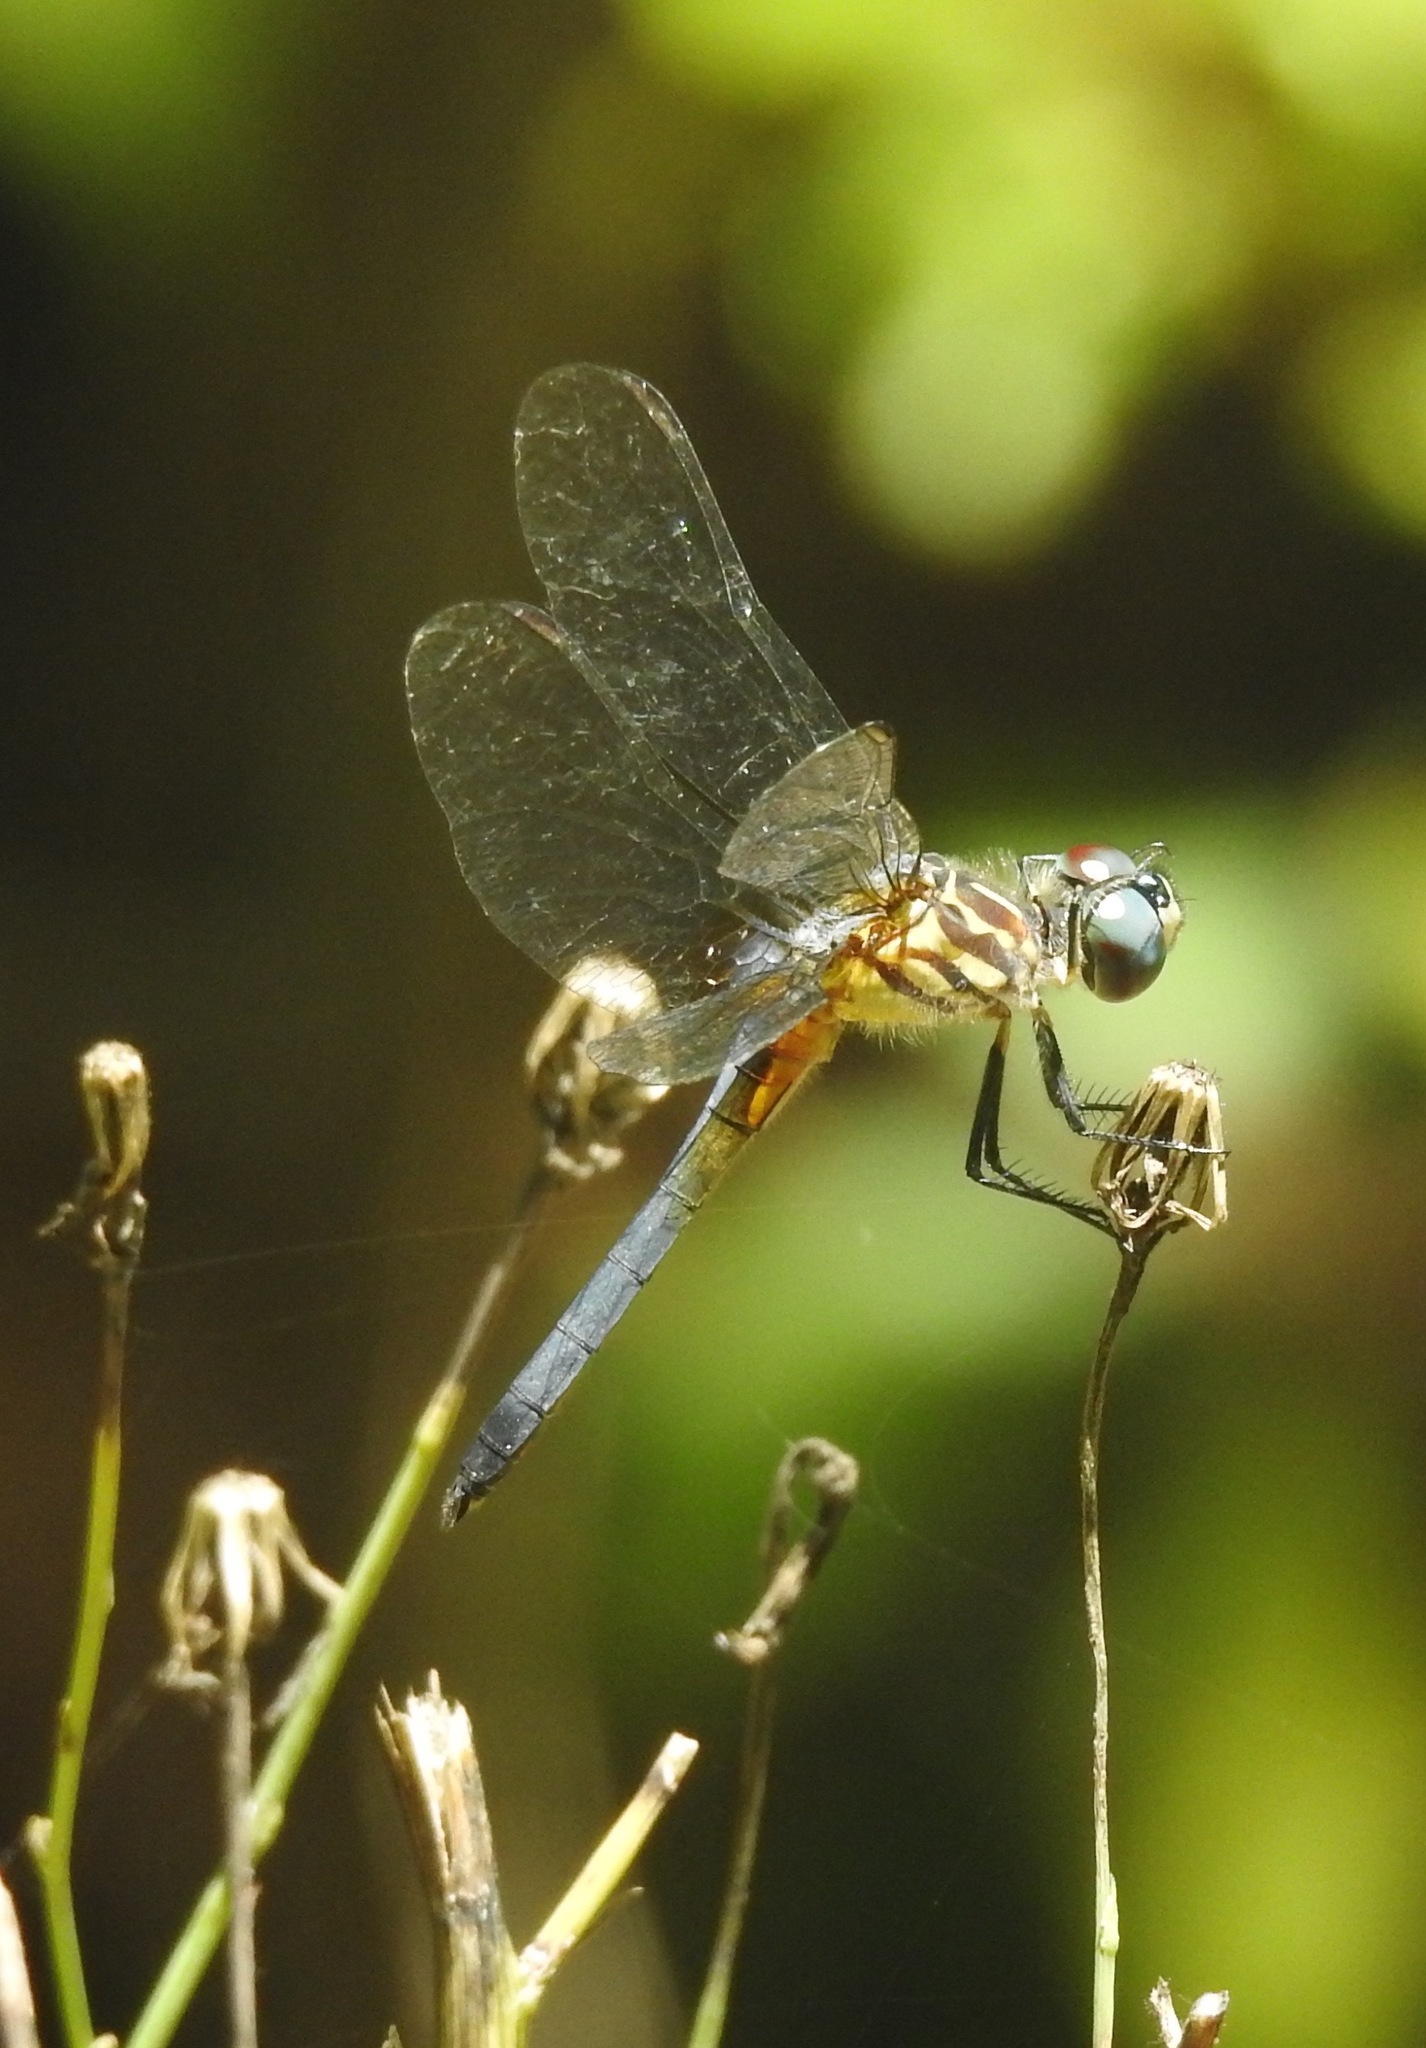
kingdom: Animalia
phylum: Arthropoda
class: Insecta
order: Odonata
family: Libellulidae
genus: Pachydiplax
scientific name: Pachydiplax longipennis
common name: Blue dasher
